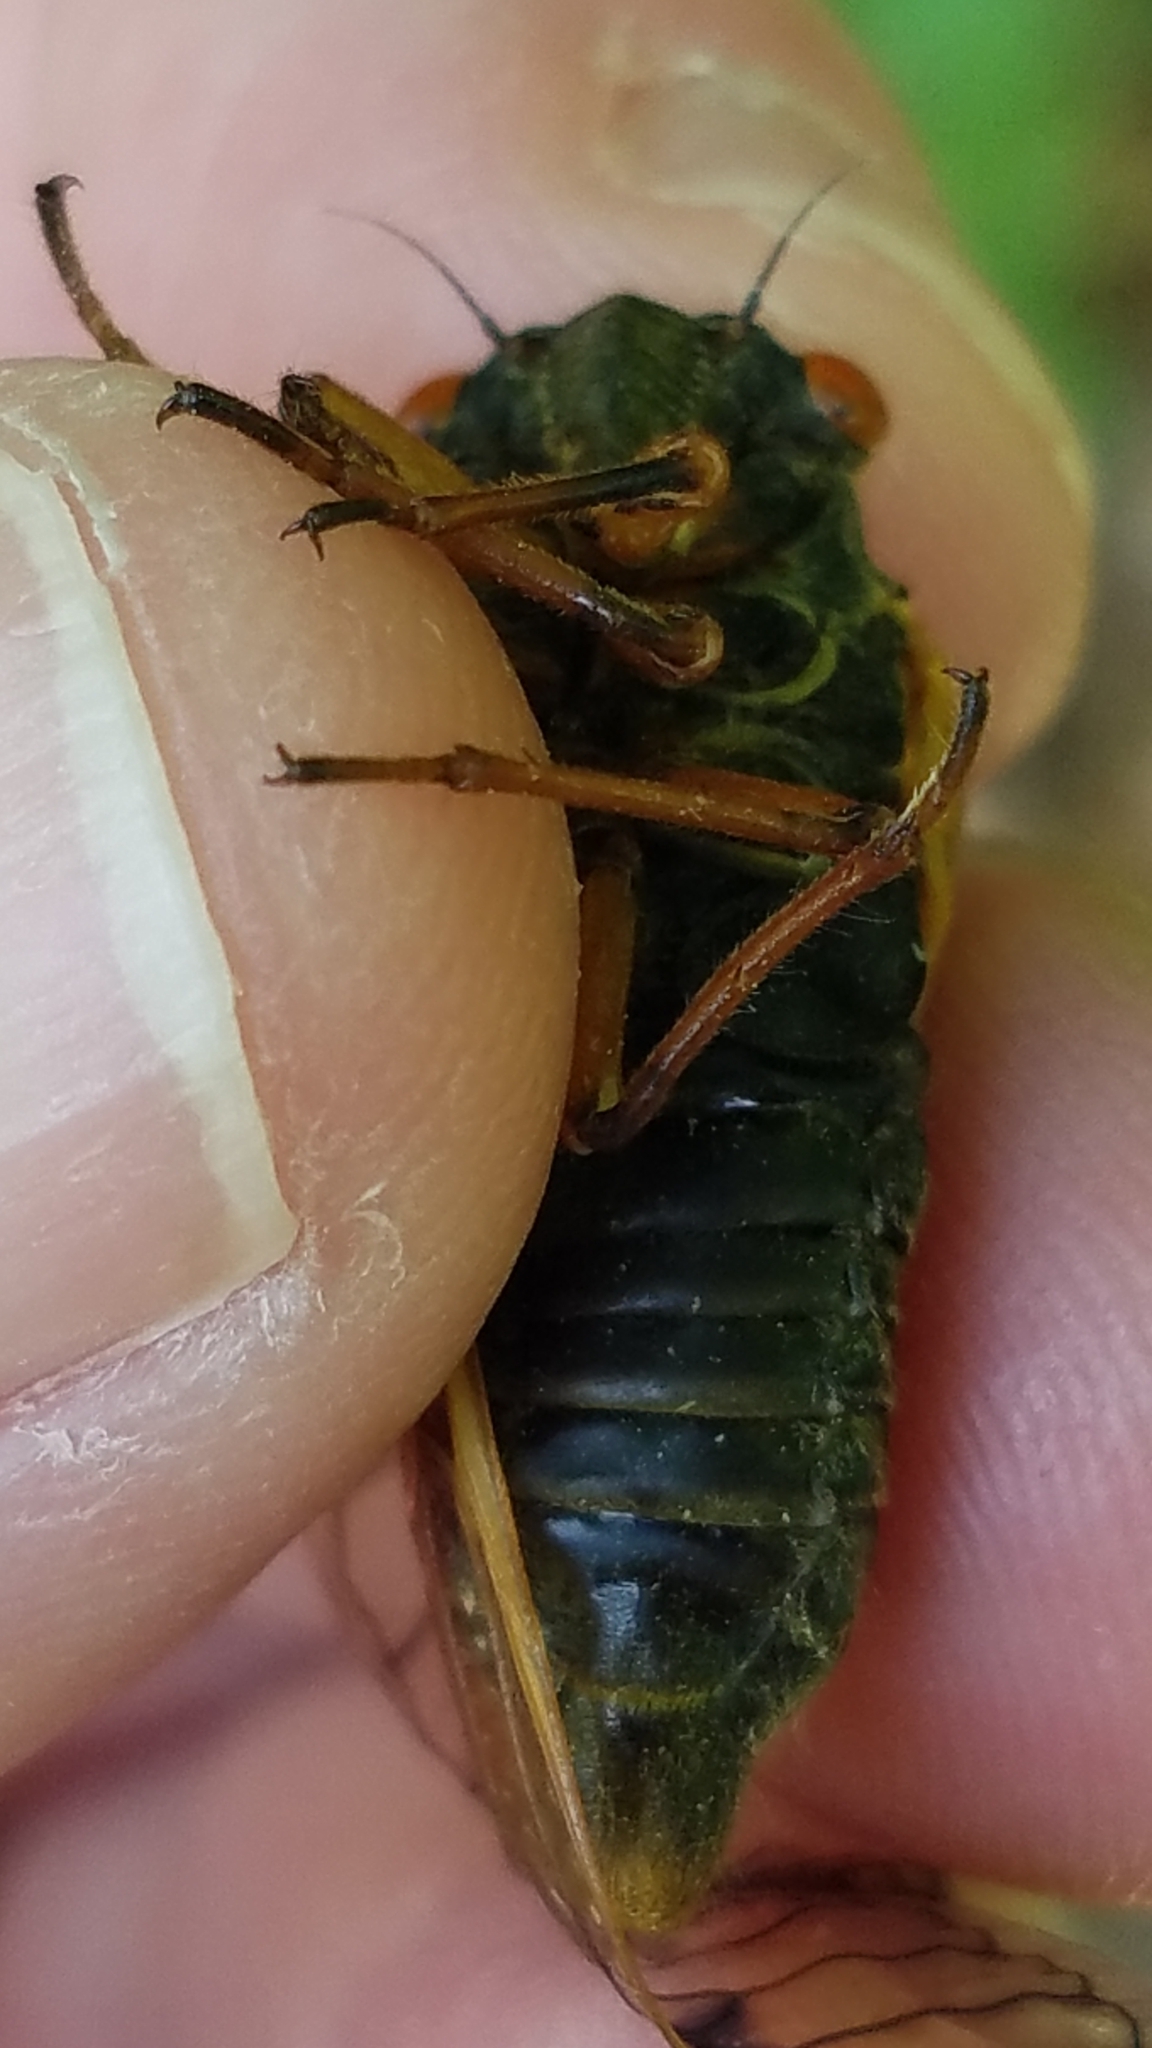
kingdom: Animalia
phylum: Arthropoda
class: Insecta
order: Hemiptera
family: Cicadidae
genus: Magicicada
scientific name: Magicicada cassini
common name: Cassin's 17-year cicada
